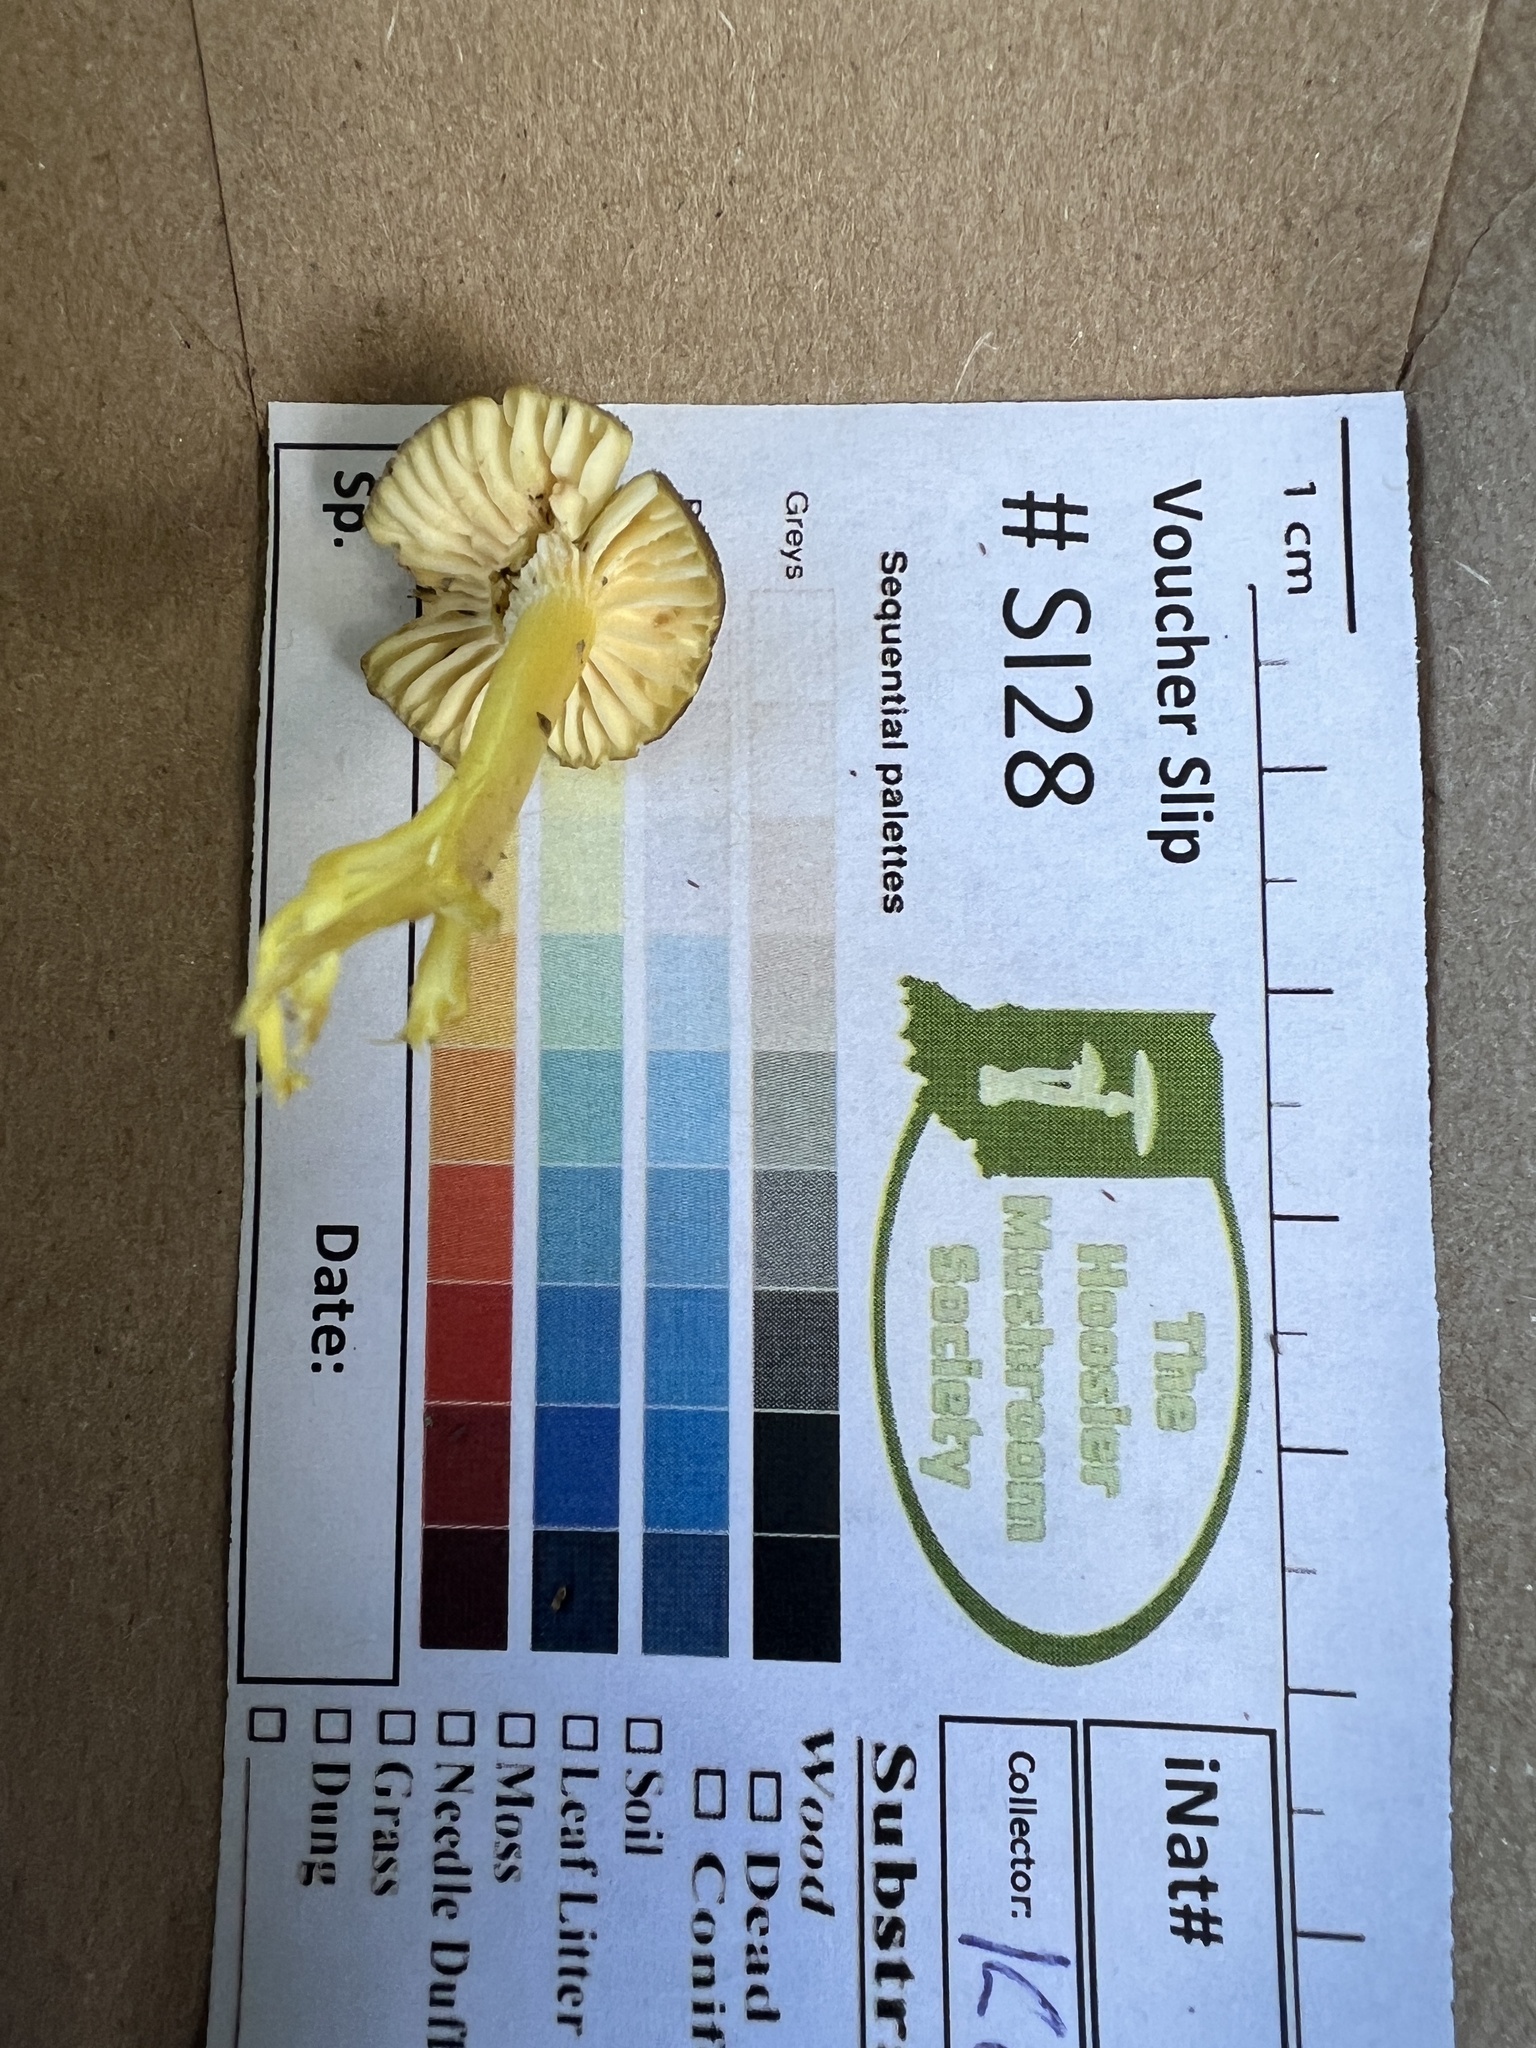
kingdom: Fungi
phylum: Basidiomycota
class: Agaricomycetes
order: Agaricales
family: Hygrophoraceae
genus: Hygrocybe
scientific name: Hygrocybe caespitosa
